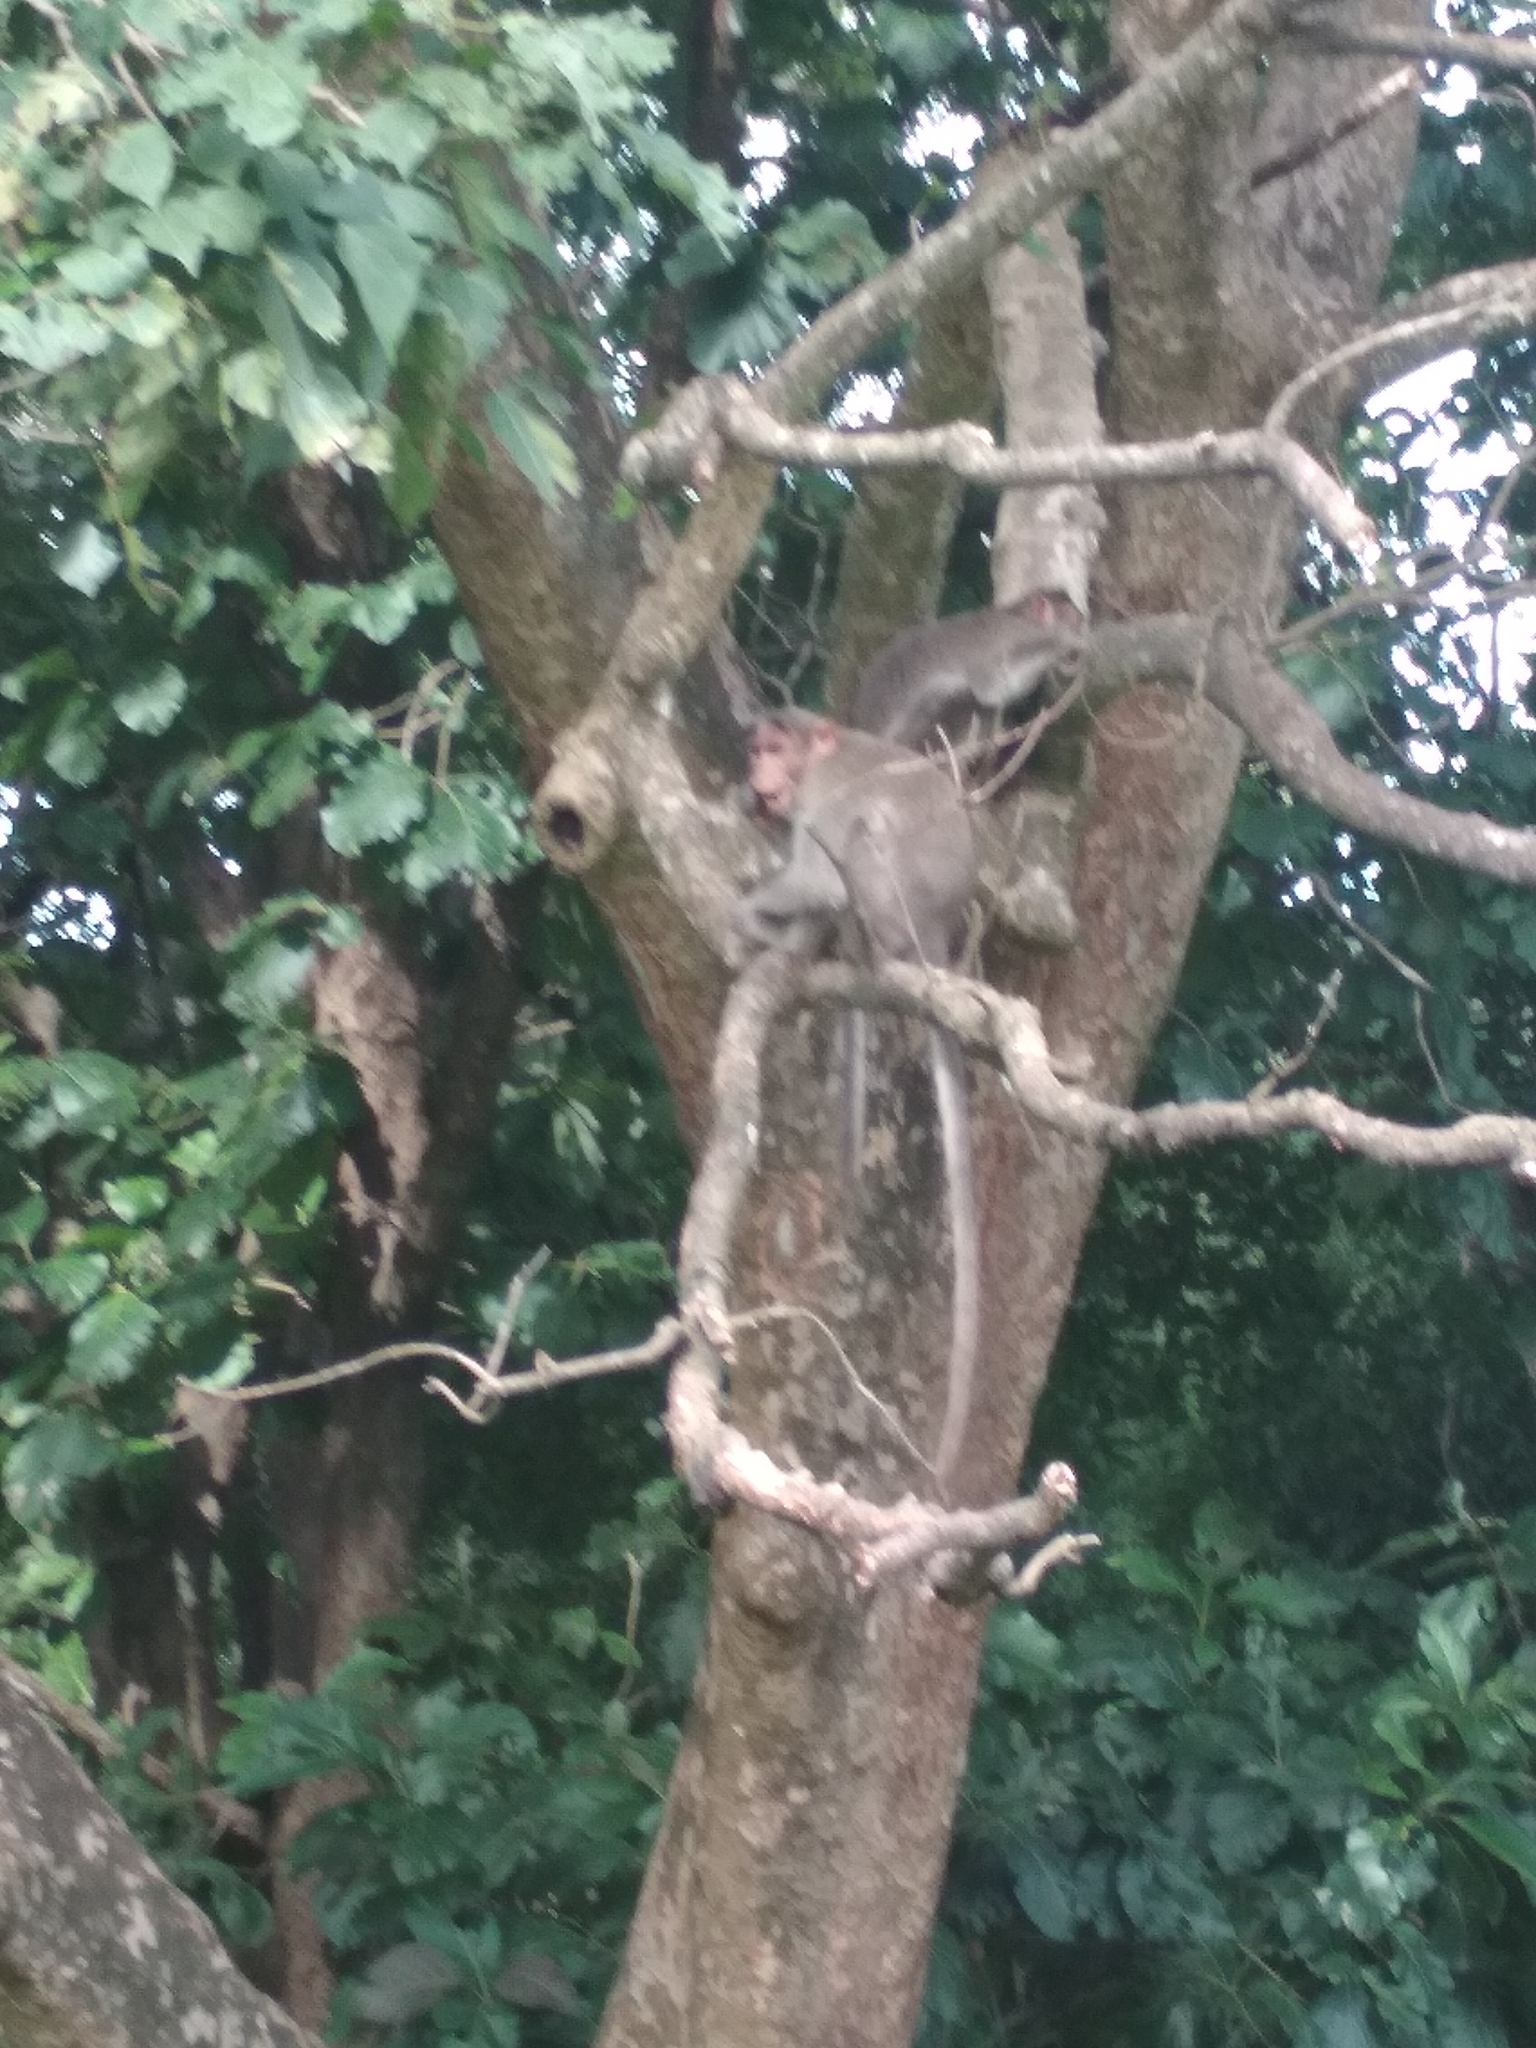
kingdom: Animalia
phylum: Chordata
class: Mammalia
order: Primates
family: Cercopithecidae
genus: Macaca
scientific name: Macaca radiata
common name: Bonnet macaque
